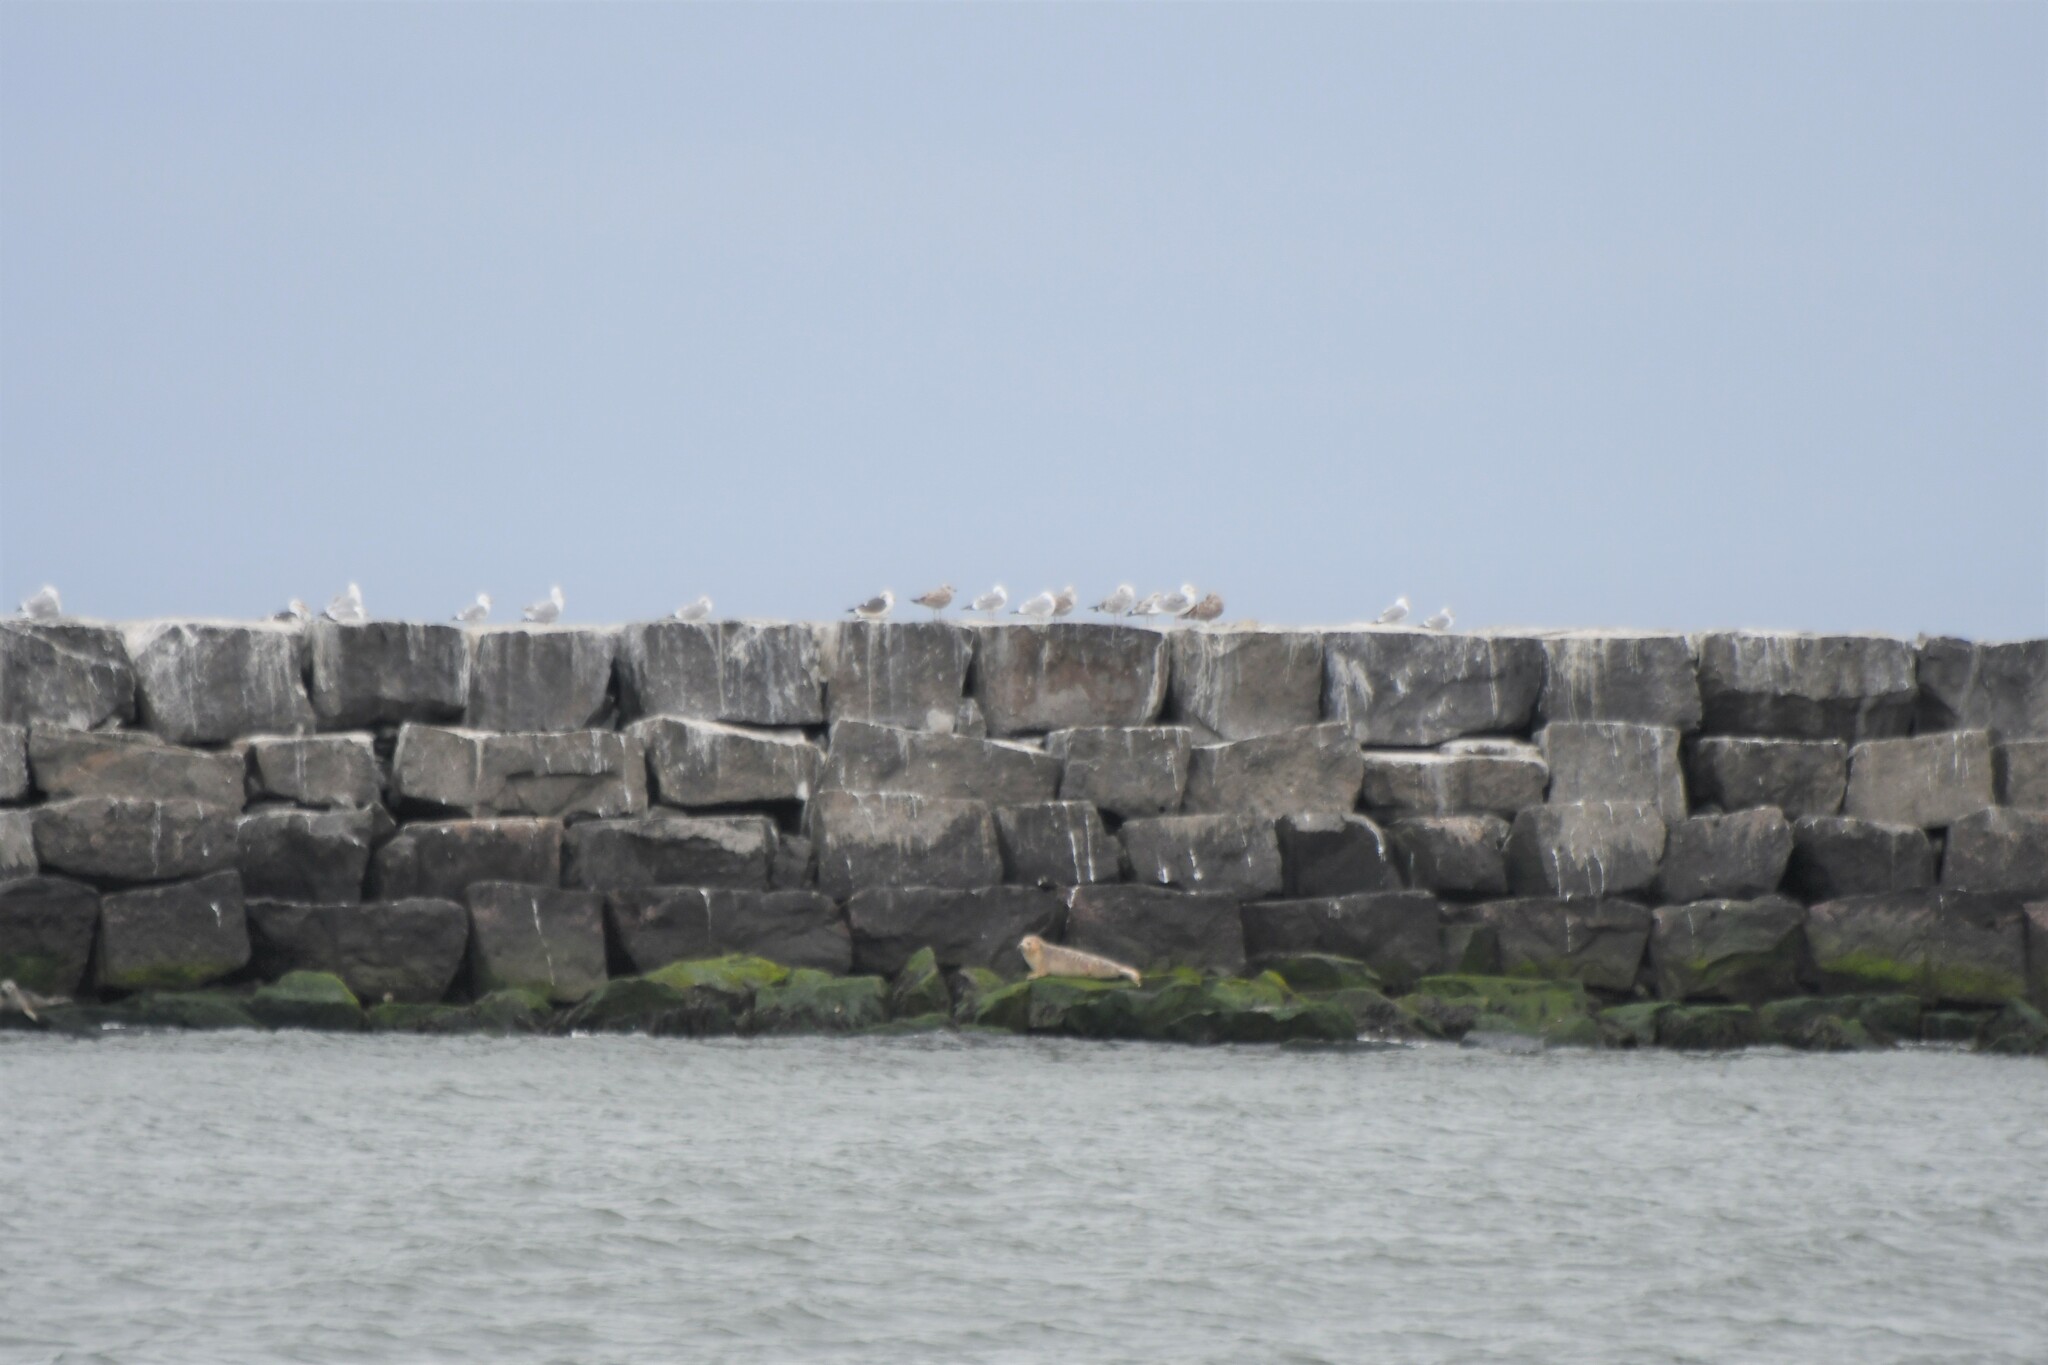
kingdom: Animalia
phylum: Chordata
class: Mammalia
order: Carnivora
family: Phocidae
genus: Phoca
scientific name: Phoca vitulina
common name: Harbor seal
